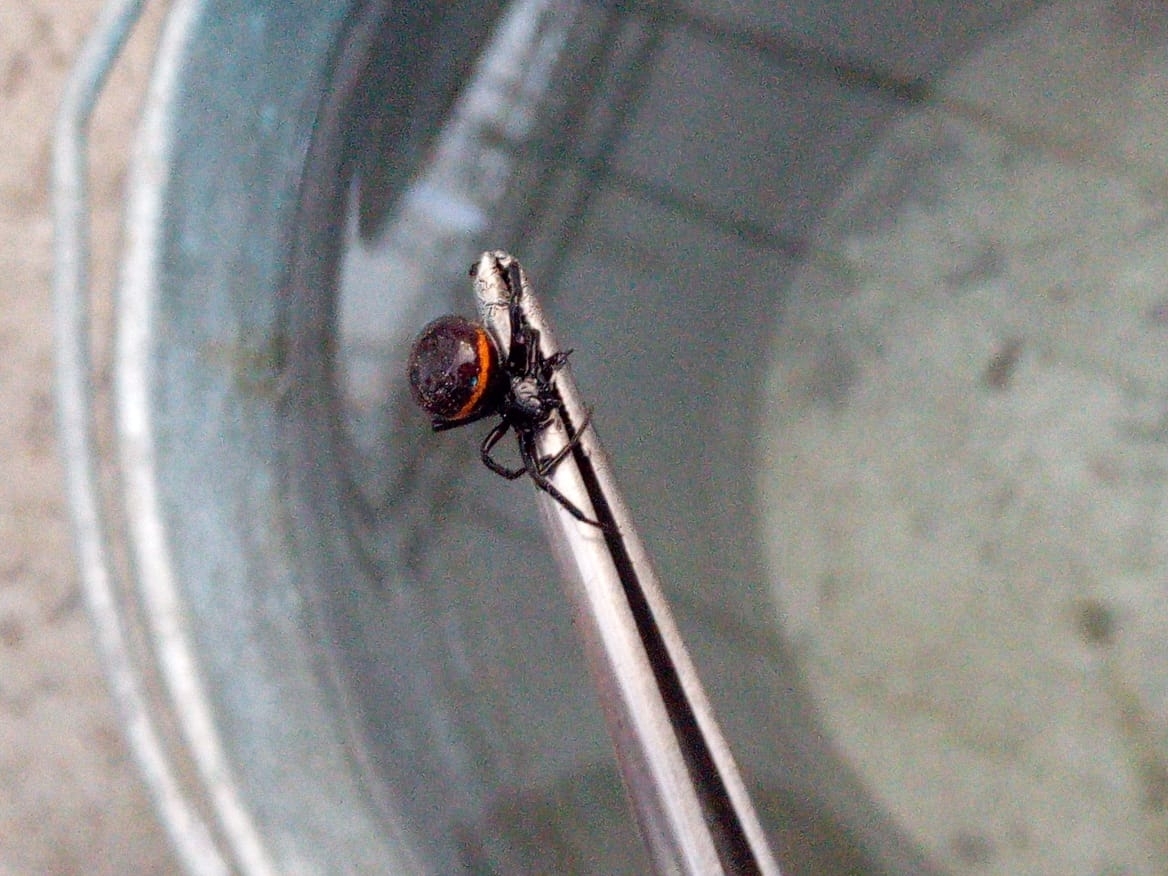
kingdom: Animalia
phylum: Arthropoda
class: Arachnida
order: Araneae
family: Theridiidae
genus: Steatoda
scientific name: Steatoda paykulliana
